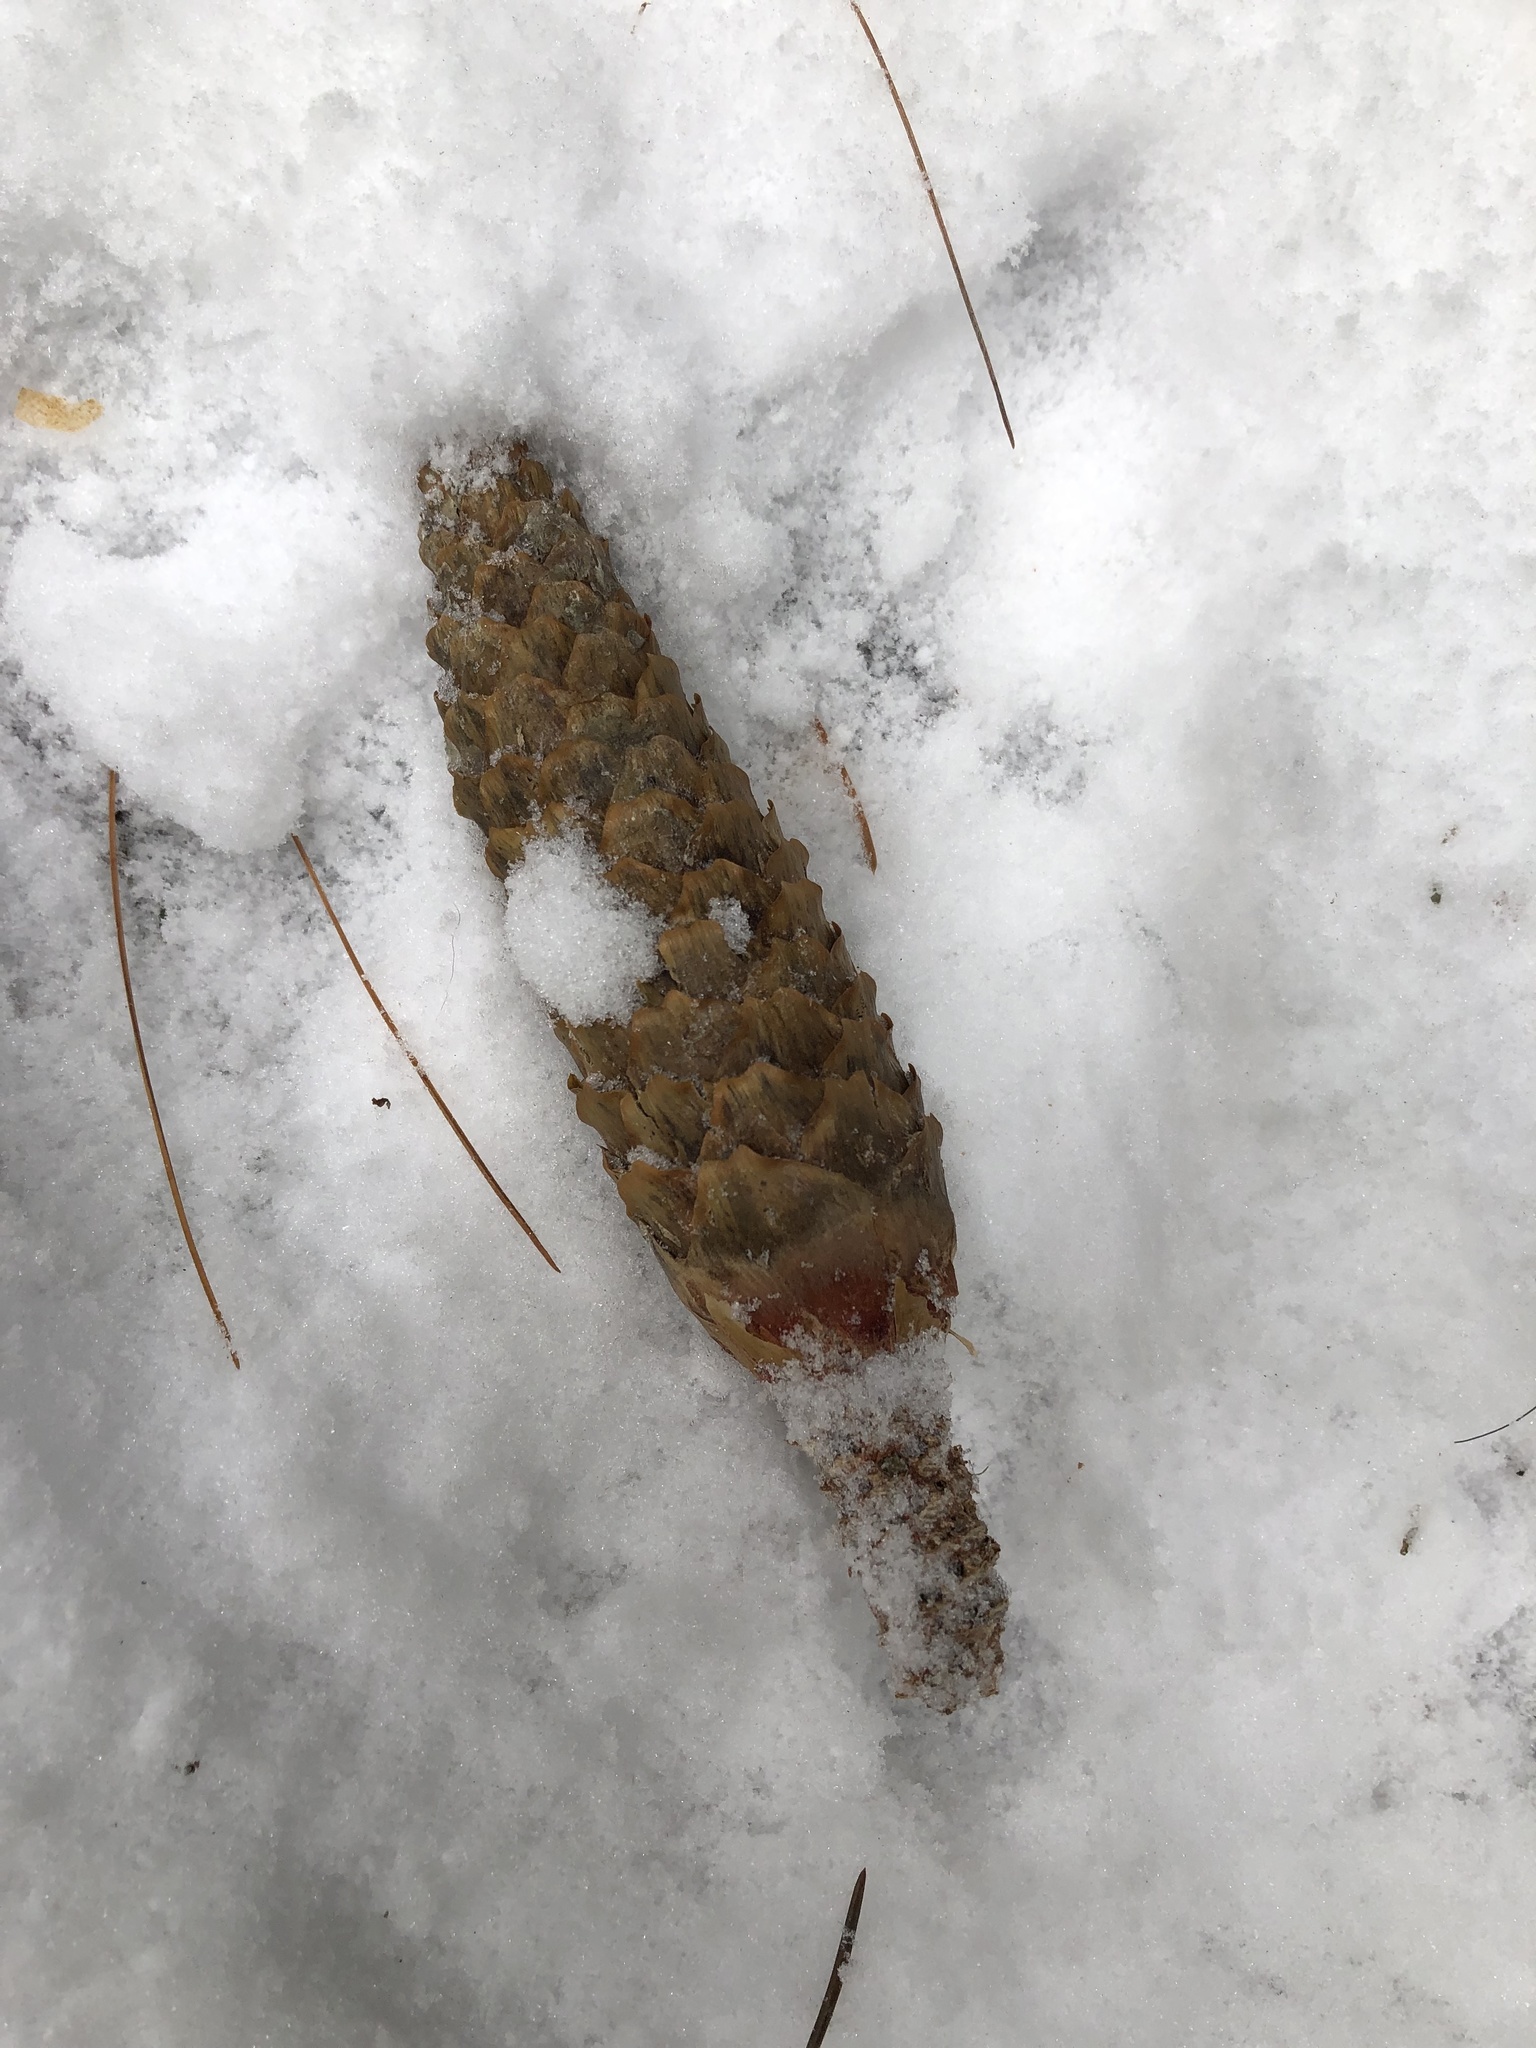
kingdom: Plantae
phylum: Tracheophyta
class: Pinopsida
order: Pinales
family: Pinaceae
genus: Picea
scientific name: Picea abies
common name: Norway spruce
